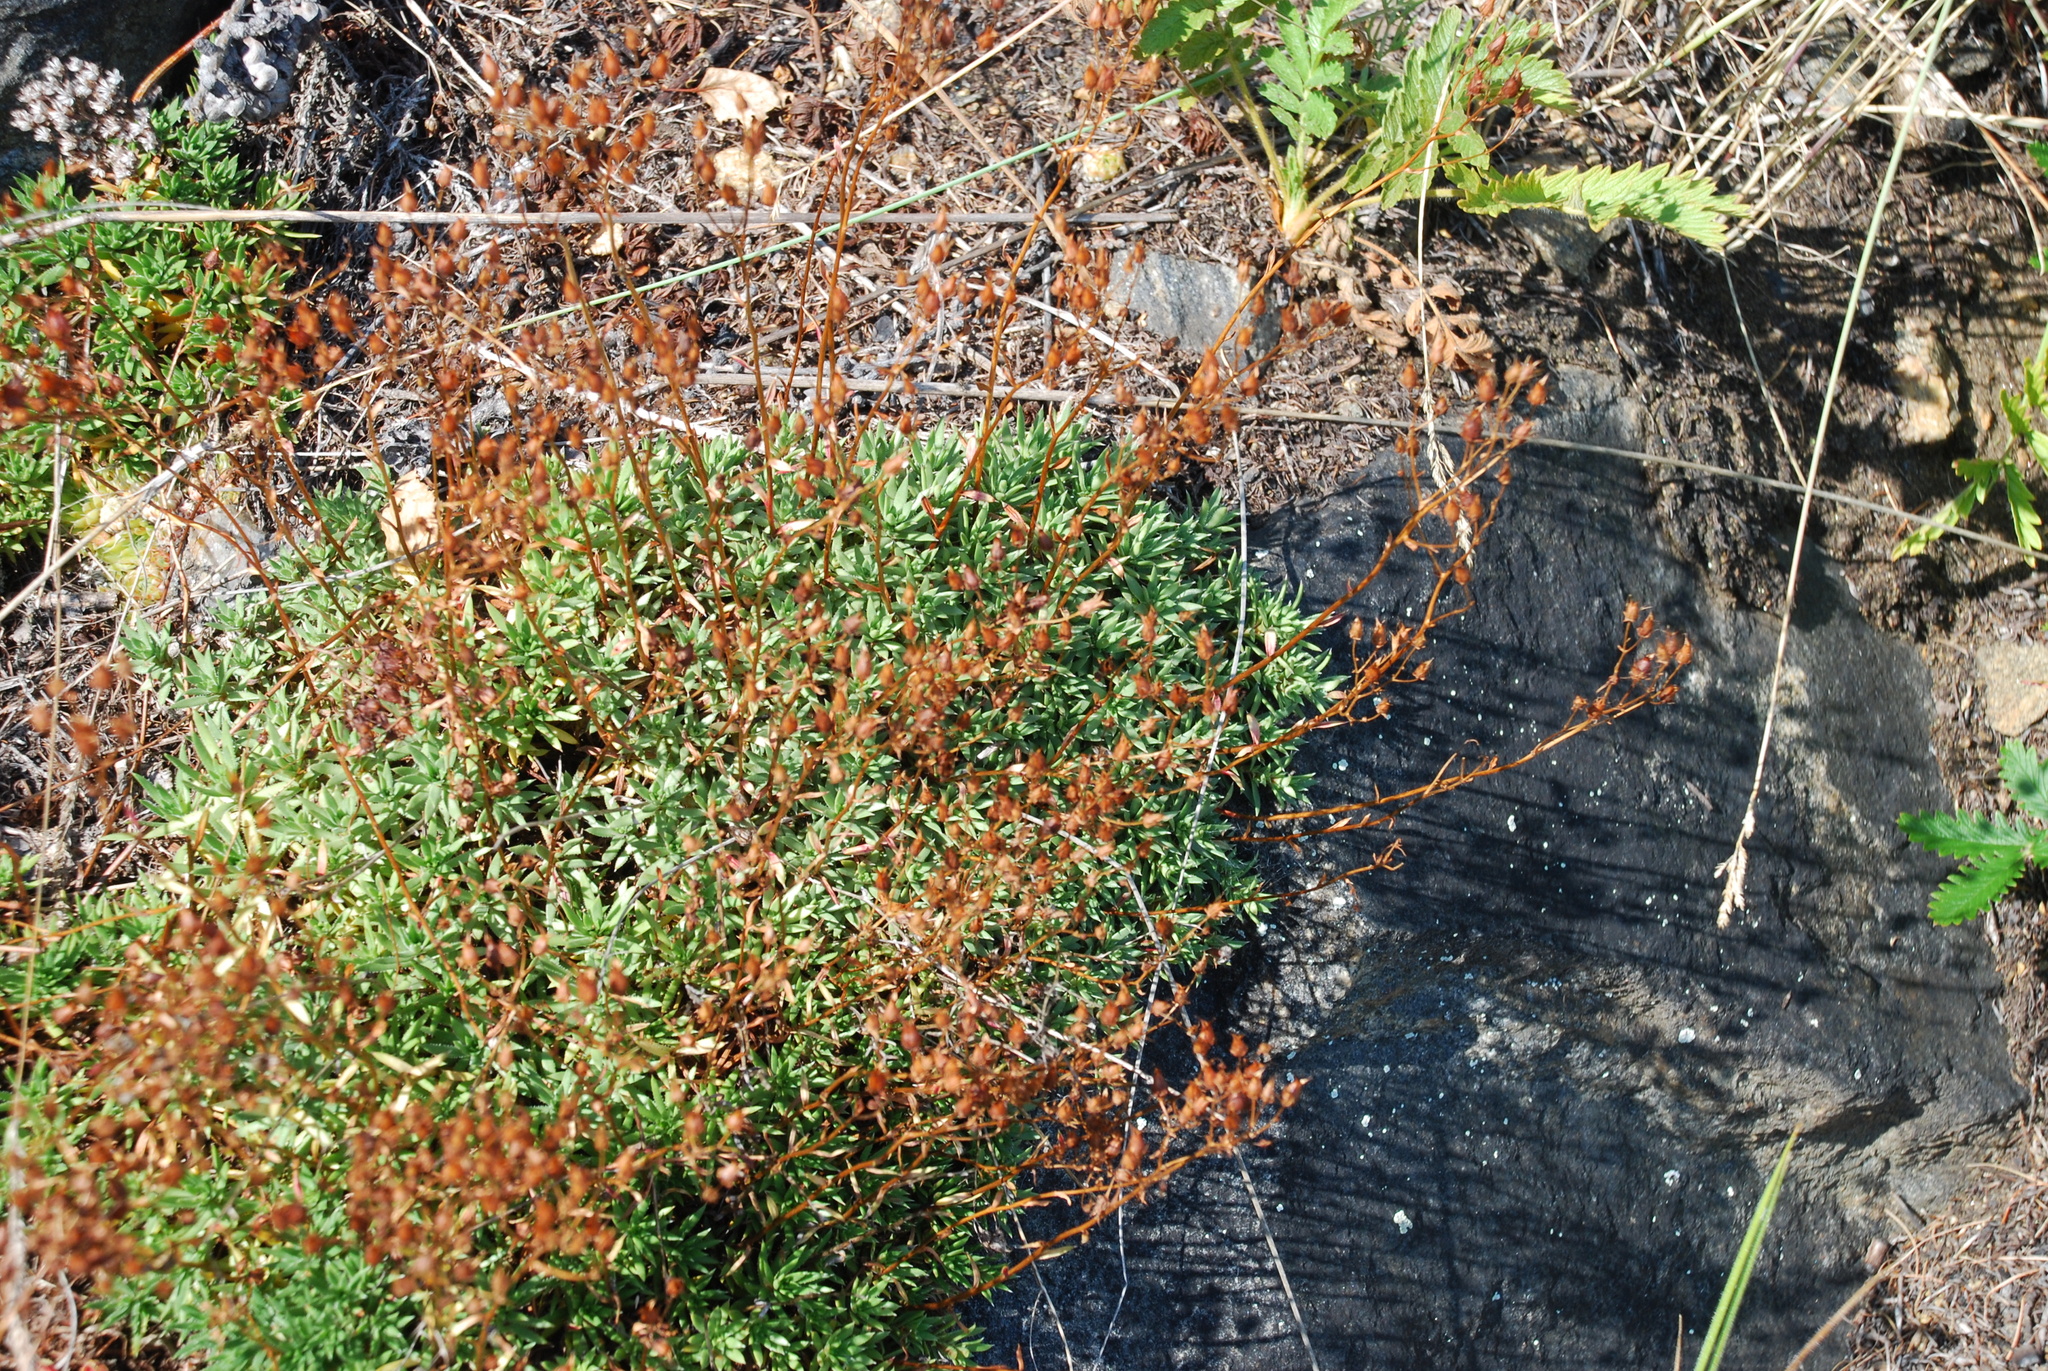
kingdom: Plantae
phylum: Tracheophyta
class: Magnoliopsida
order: Saxifragales
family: Saxifragaceae
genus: Saxifraga
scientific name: Saxifraga
